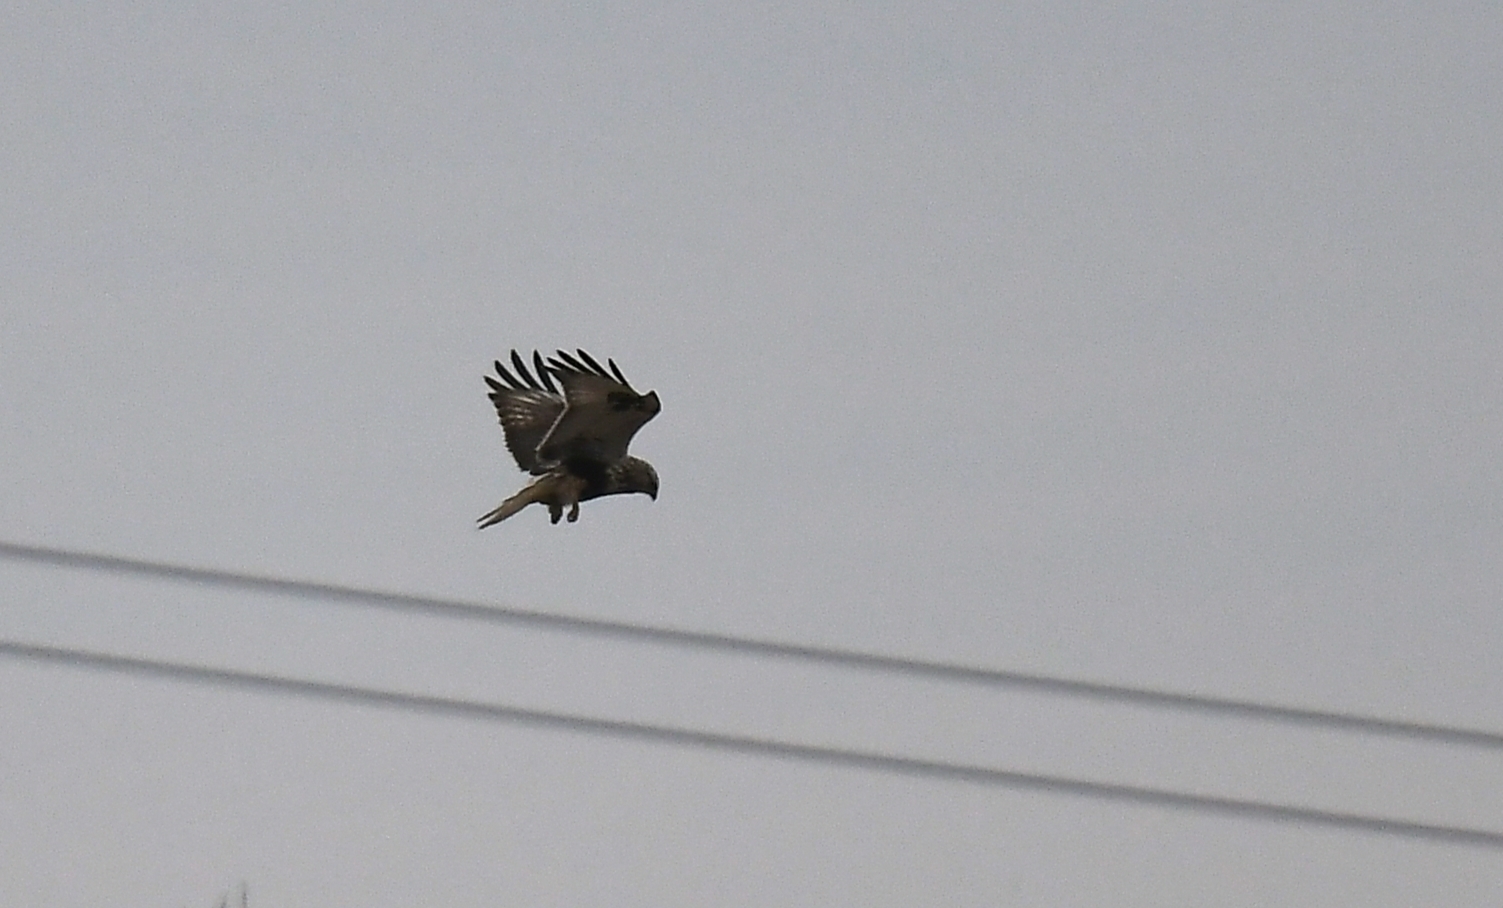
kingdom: Animalia
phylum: Chordata
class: Aves
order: Accipitriformes
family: Accipitridae
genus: Buteo
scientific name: Buteo lagopus
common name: Rough-legged buzzard
